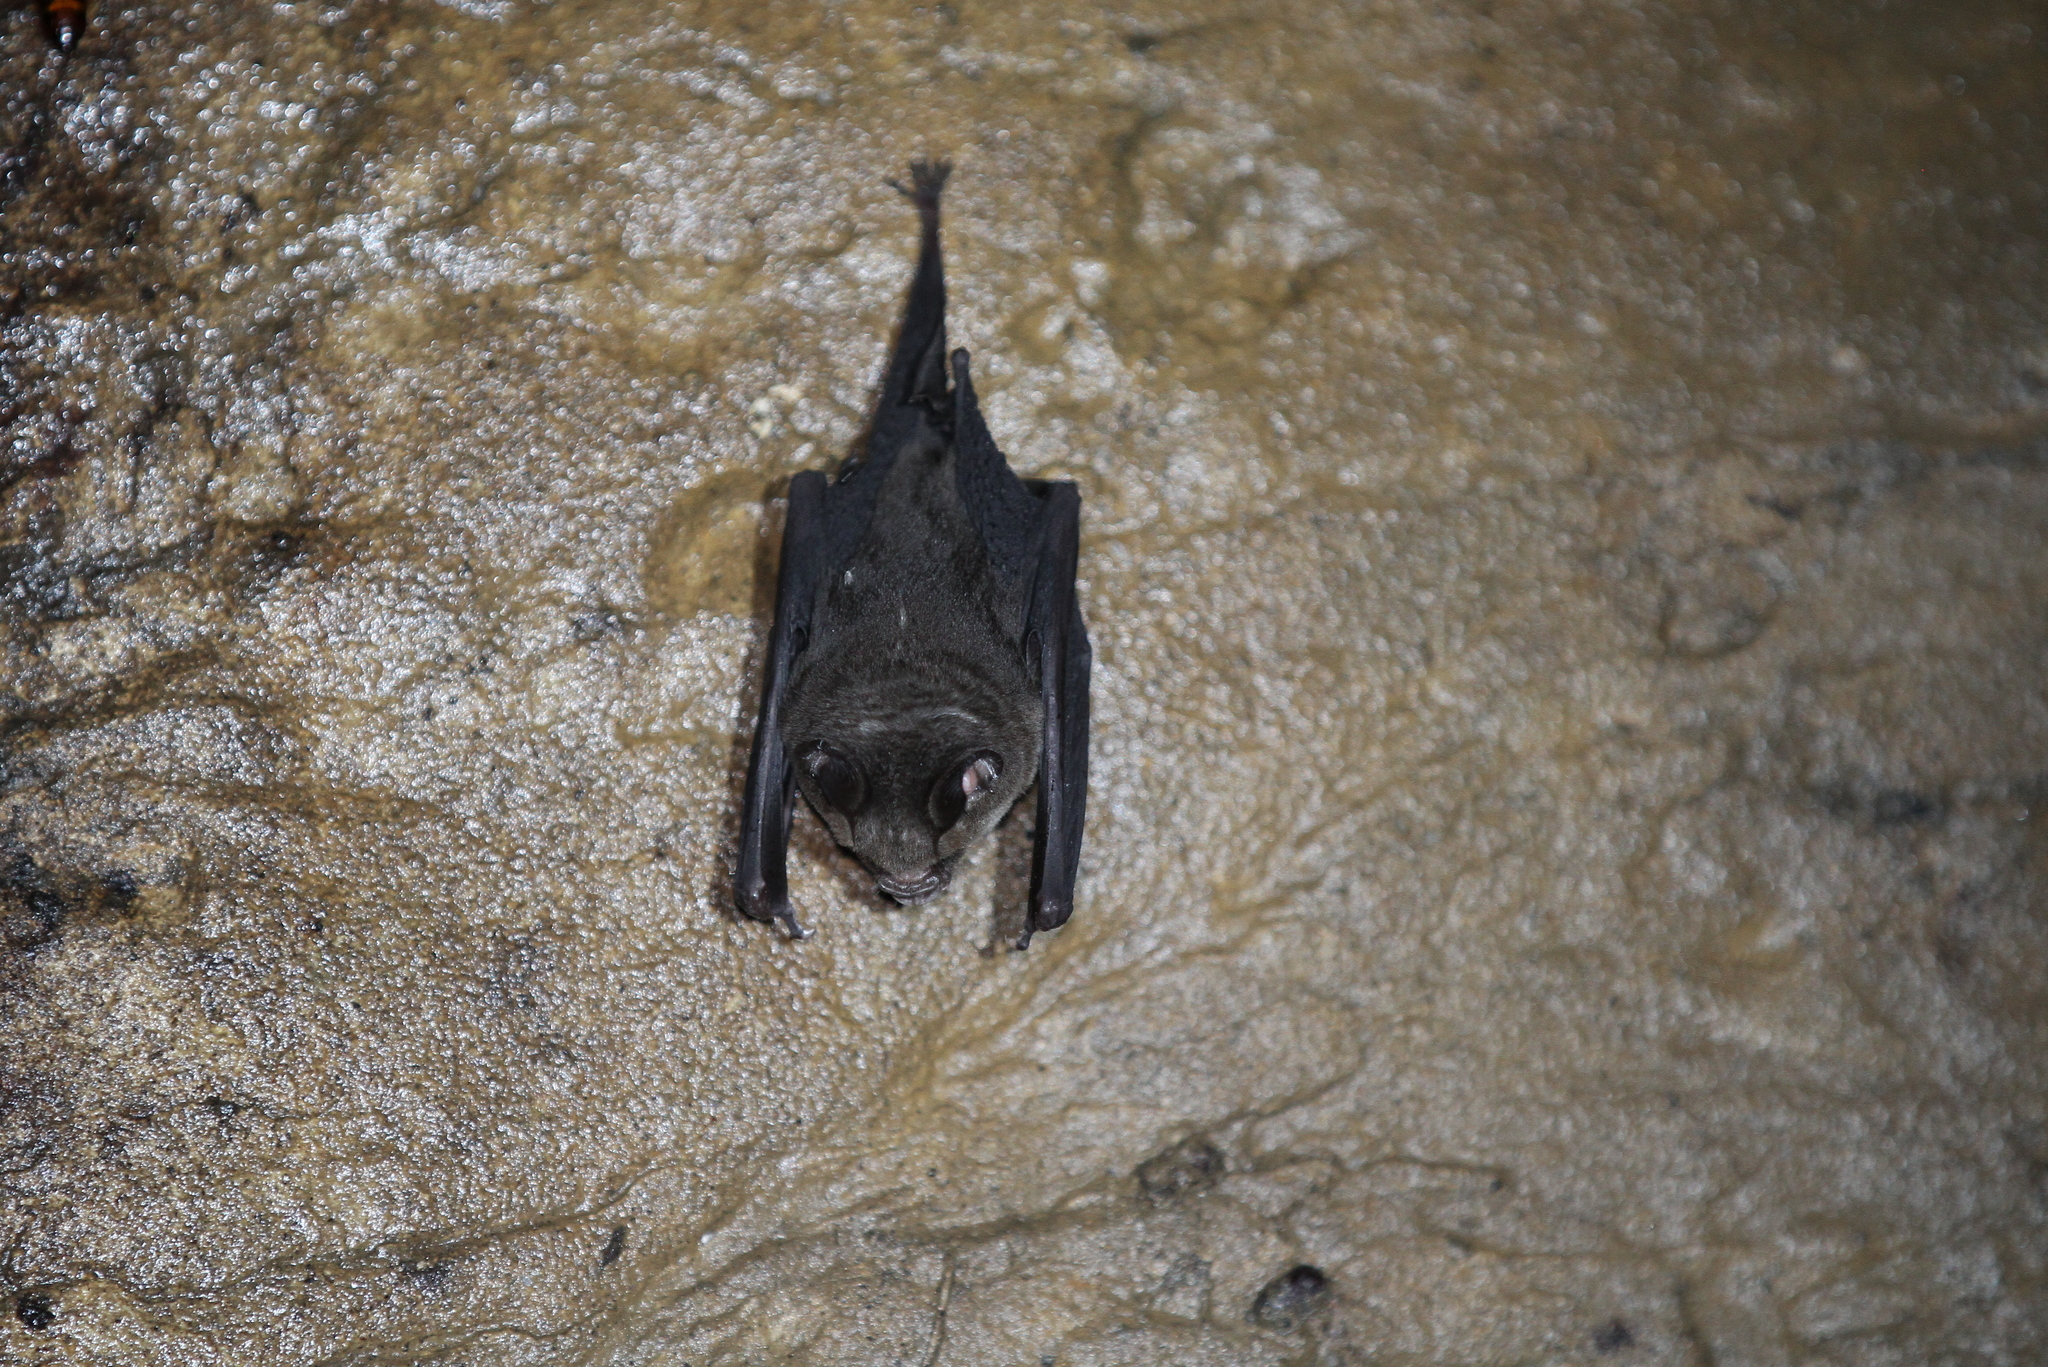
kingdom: Animalia
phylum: Chordata
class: Mammalia
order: Chiroptera
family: Hipposideridae
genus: Hipposideros
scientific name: Hipposideros cervinus
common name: Fawn-colored leaf-nosed bat
